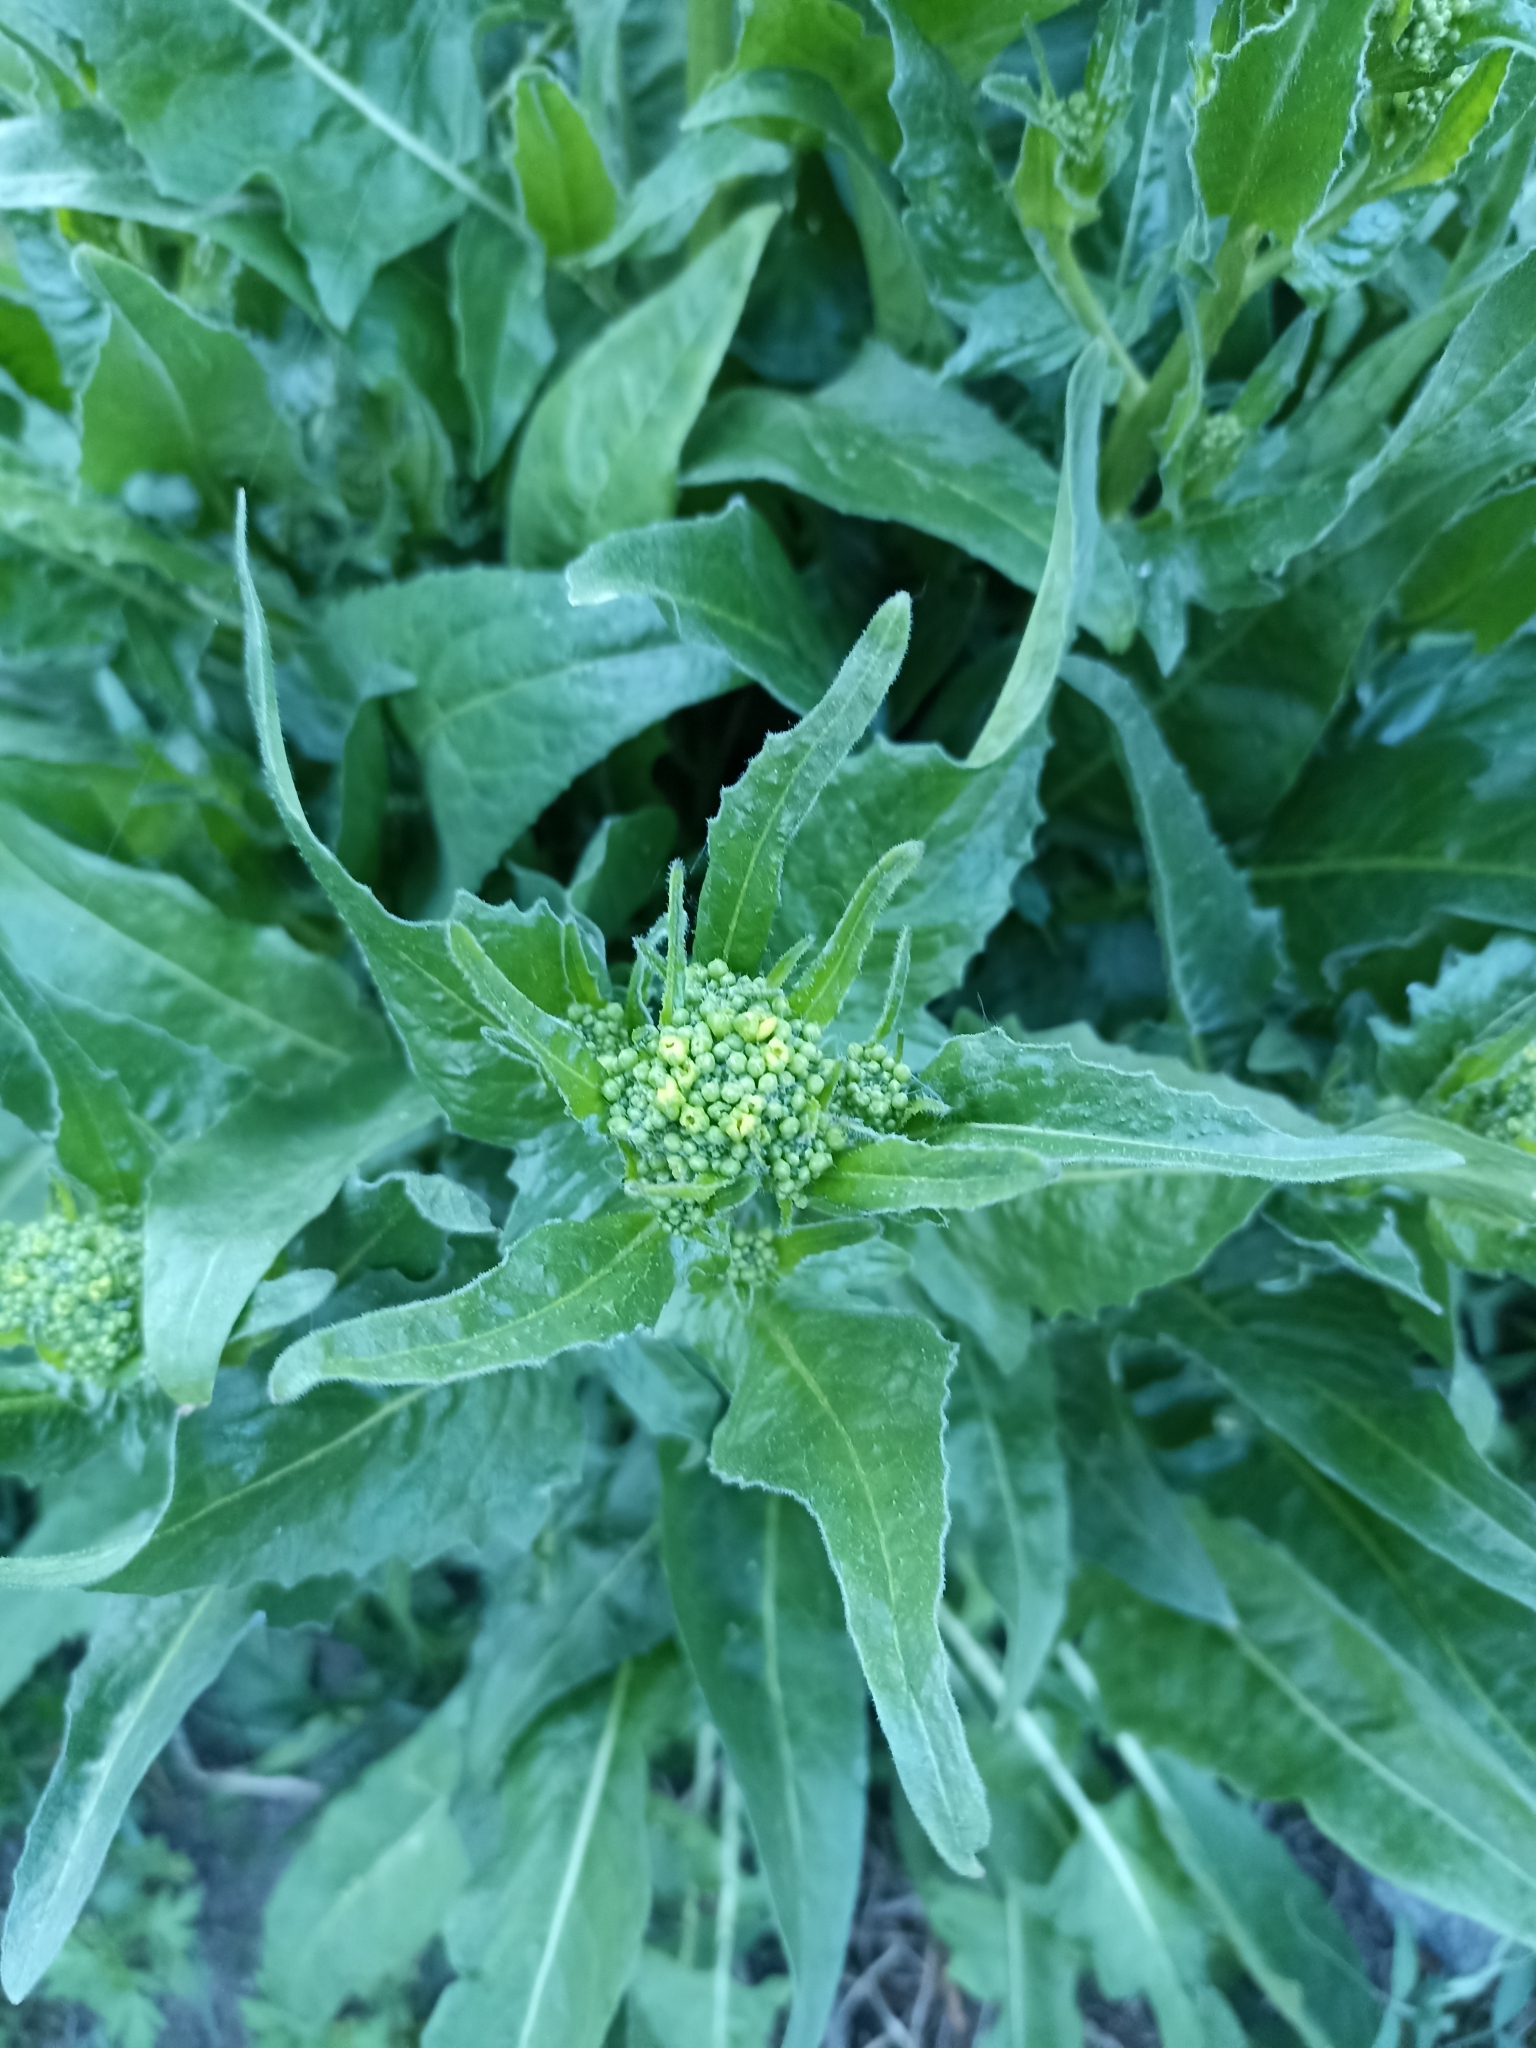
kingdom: Plantae
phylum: Tracheophyta
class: Magnoliopsida
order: Brassicales
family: Brassicaceae
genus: Bunias
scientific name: Bunias orientalis
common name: Warty-cabbage
